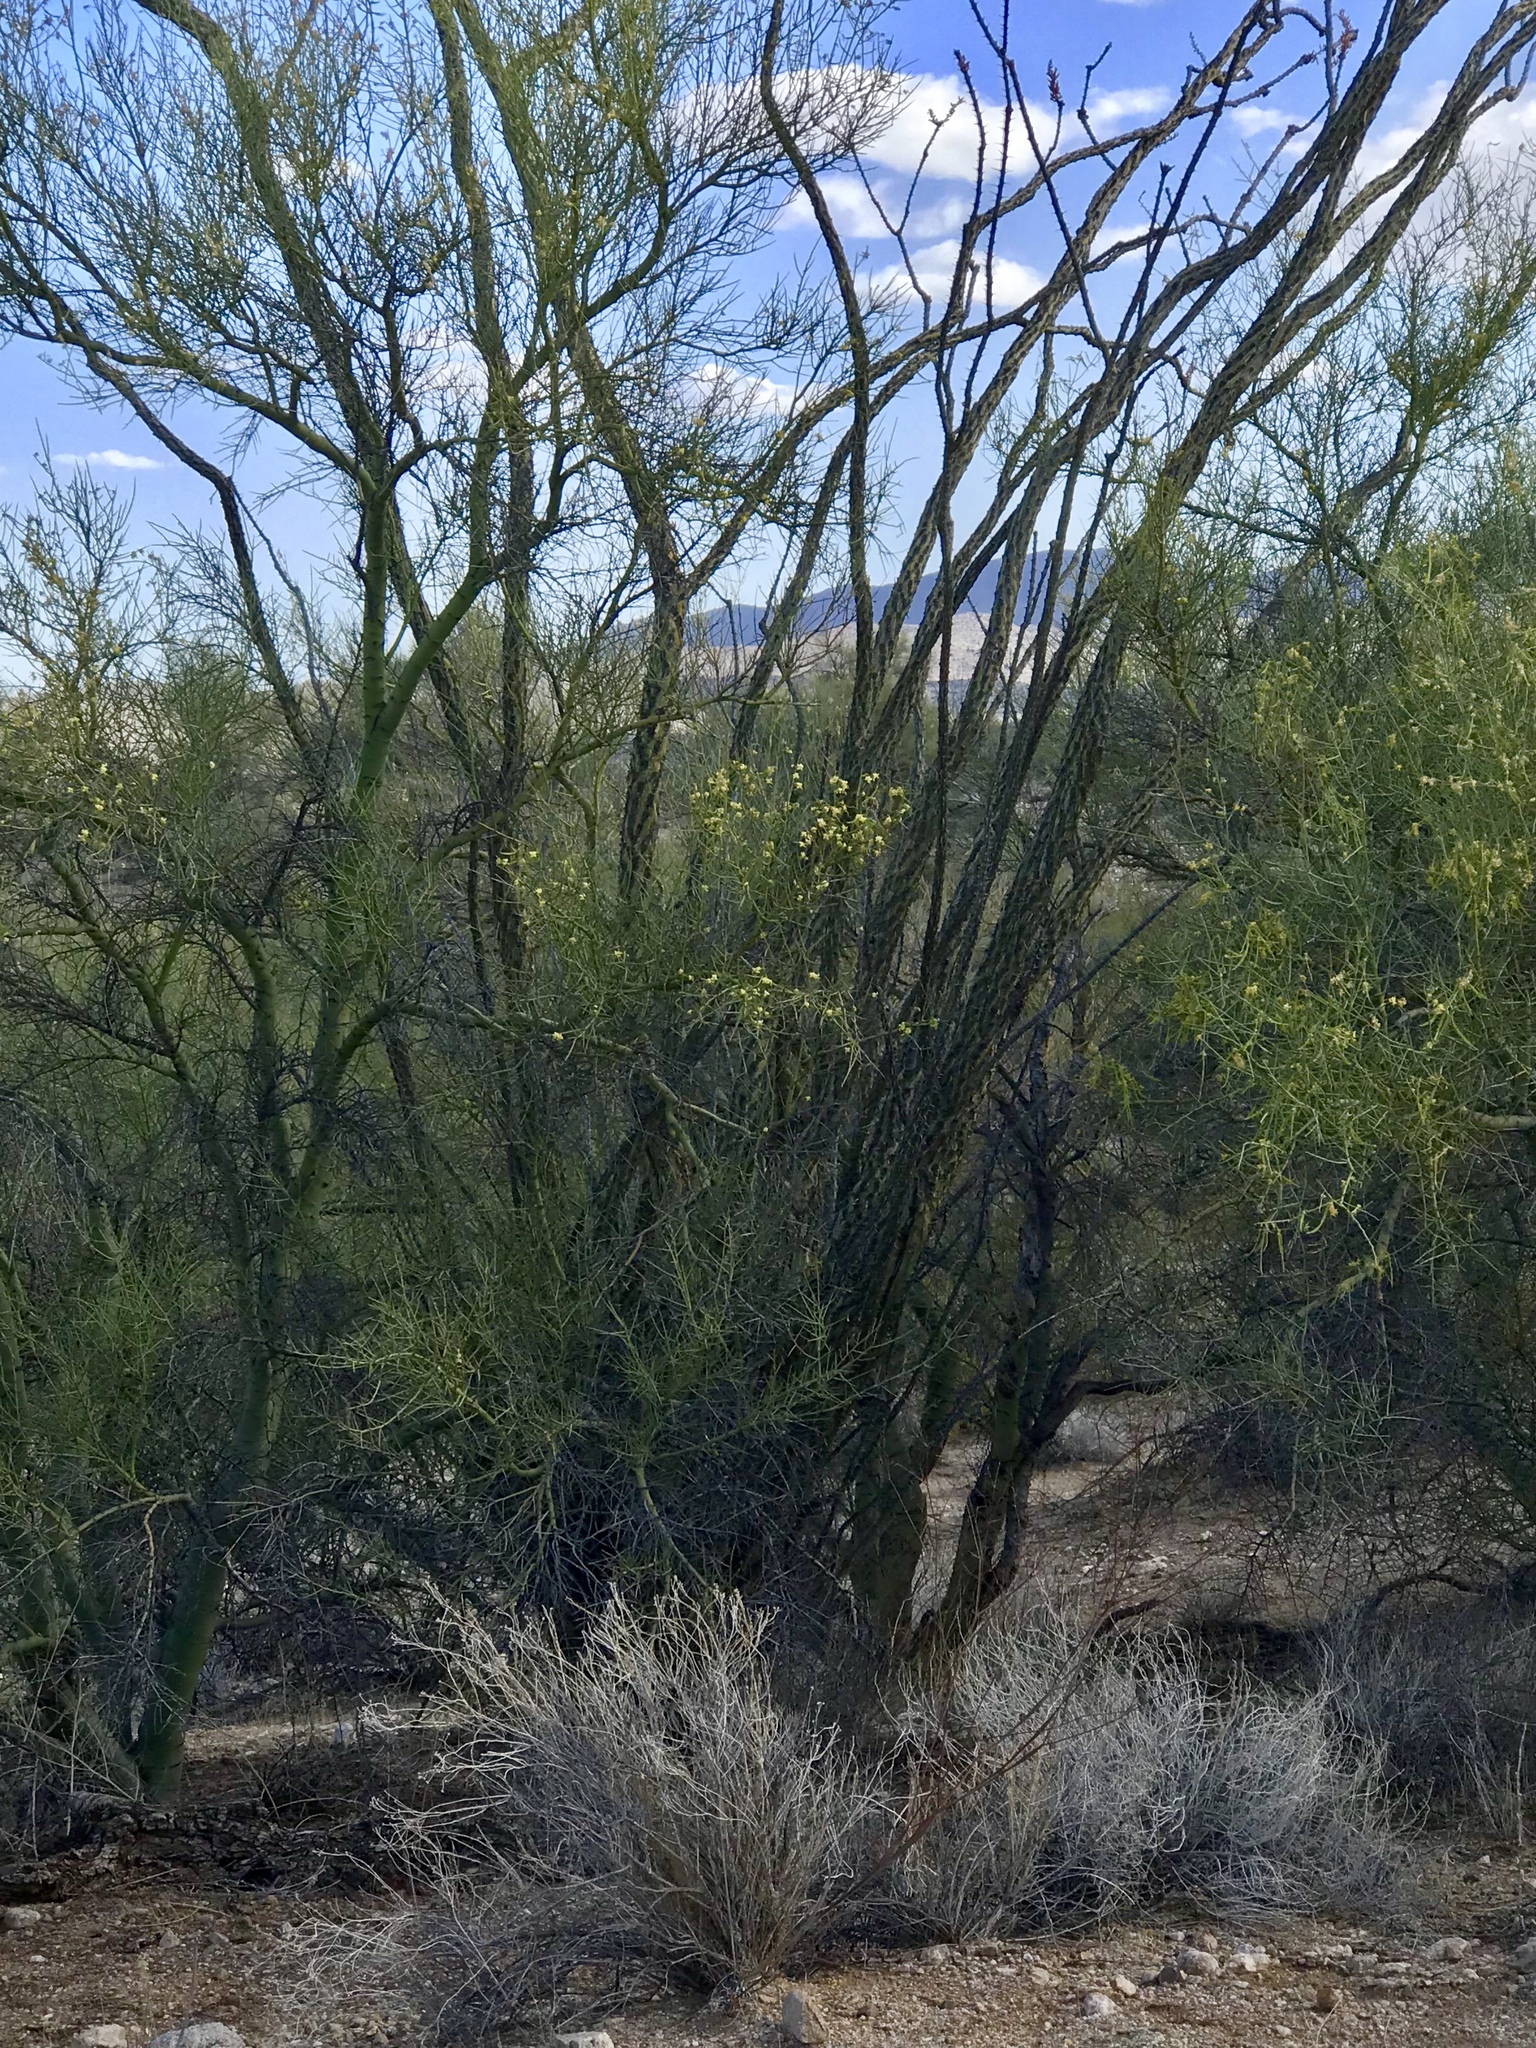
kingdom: Plantae
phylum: Tracheophyta
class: Magnoliopsida
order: Ericales
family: Fouquieriaceae
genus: Fouquieria
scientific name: Fouquieria splendens
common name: Vine-cactus
